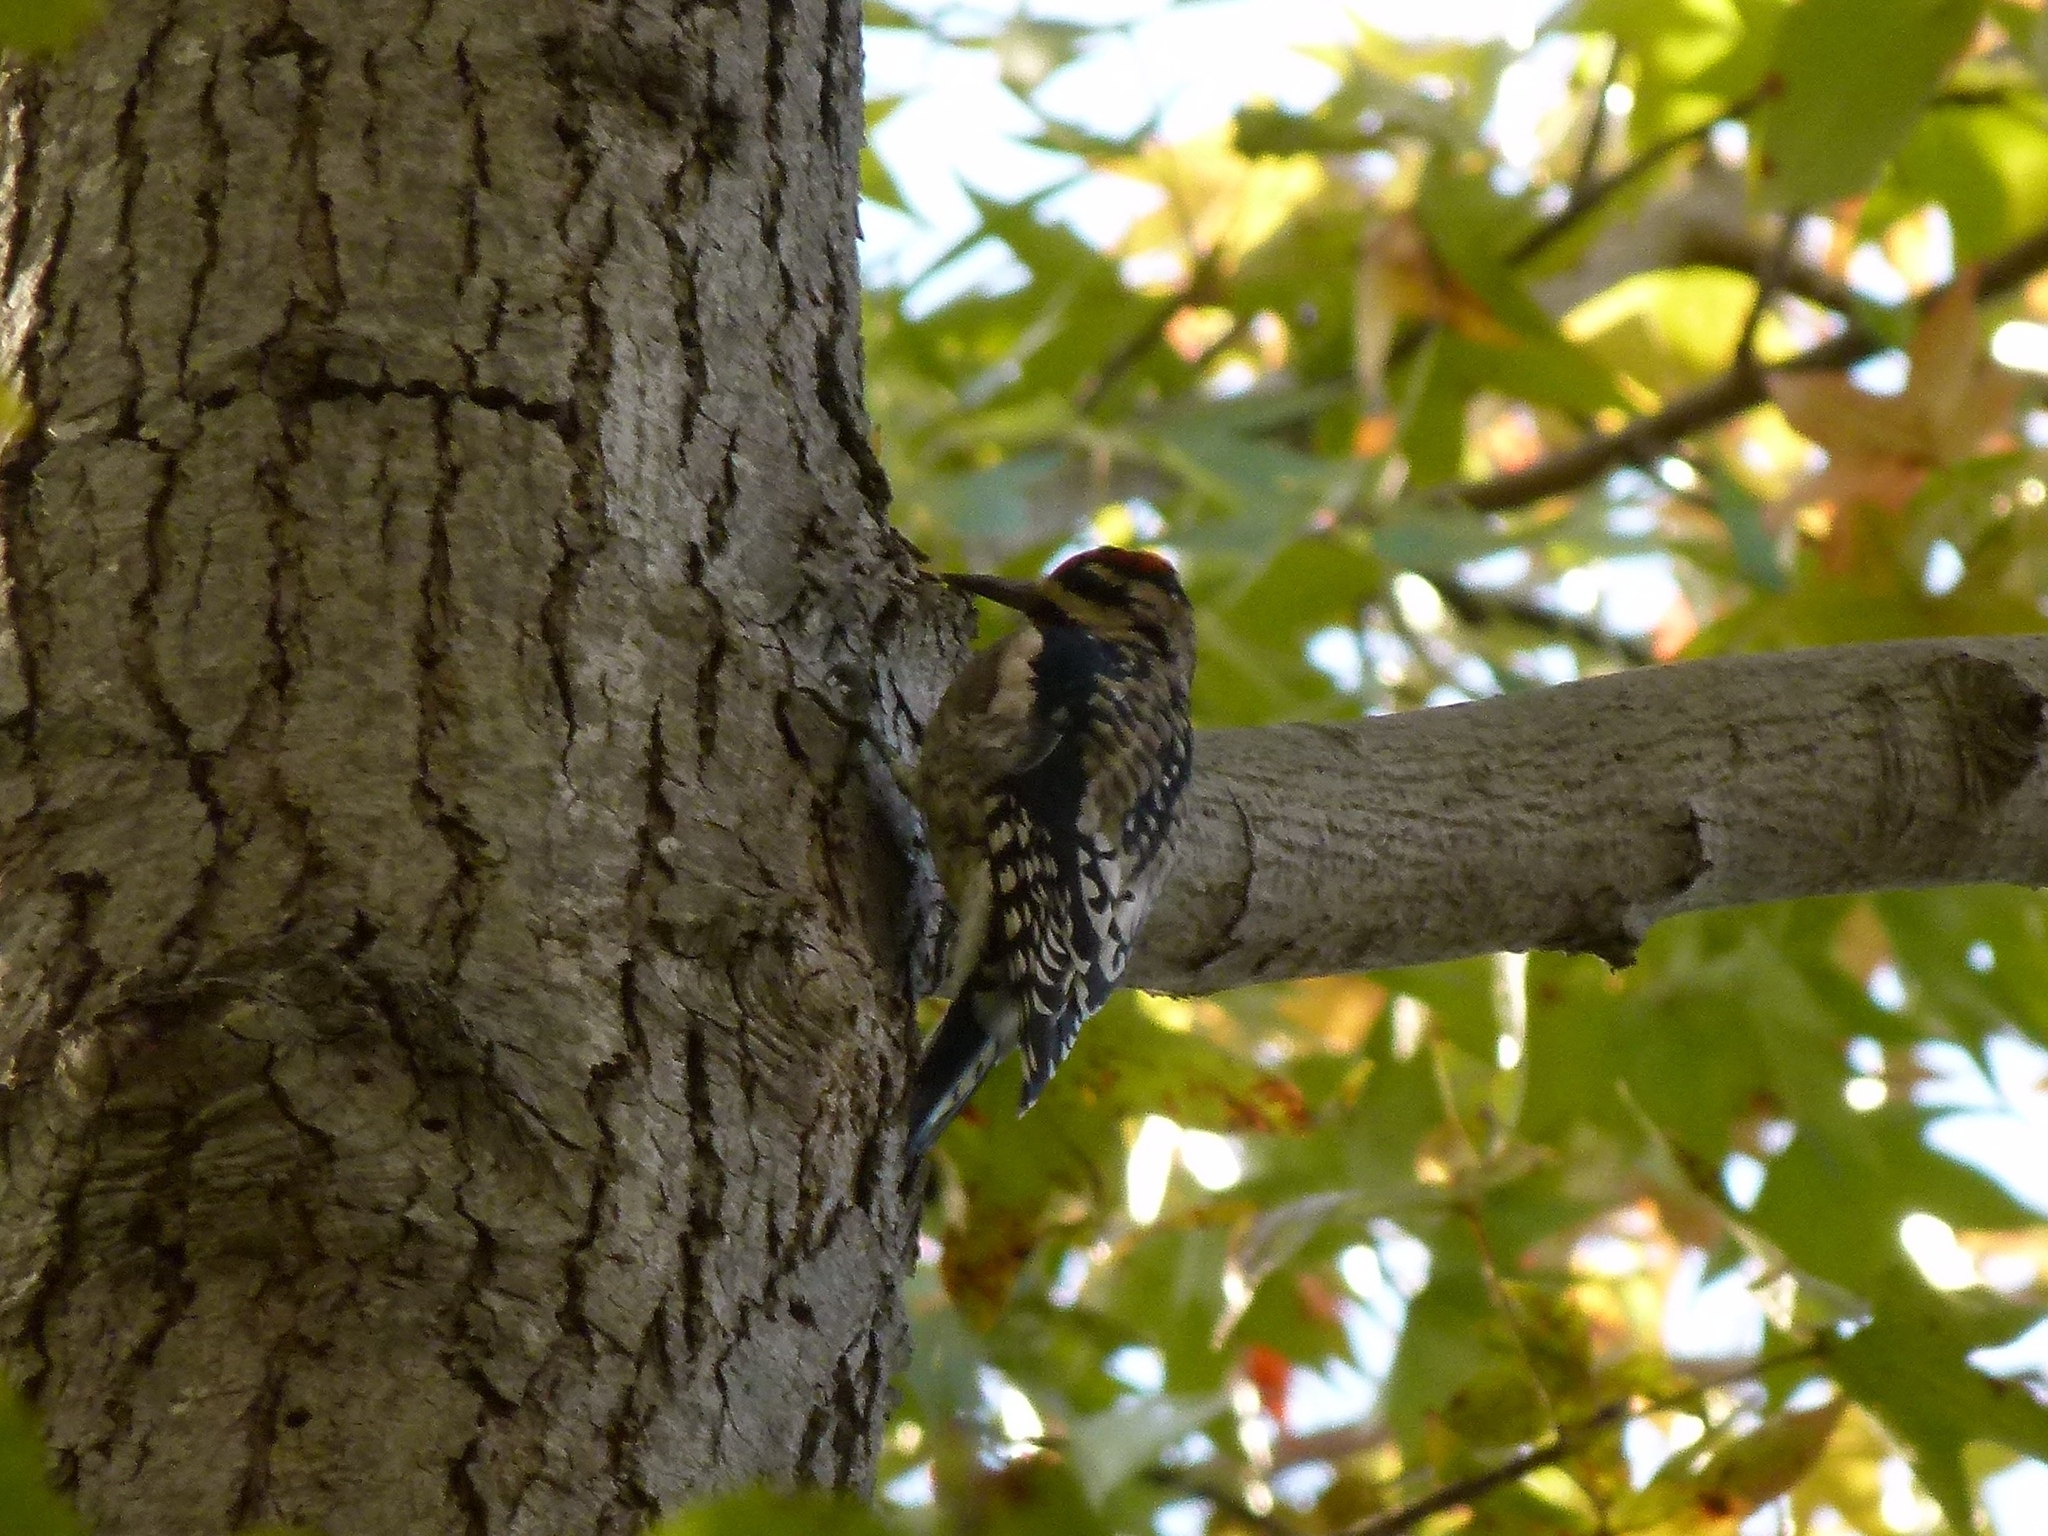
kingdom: Animalia
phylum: Chordata
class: Aves
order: Piciformes
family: Picidae
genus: Sphyrapicus
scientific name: Sphyrapicus varius
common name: Yellow-bellied sapsucker
